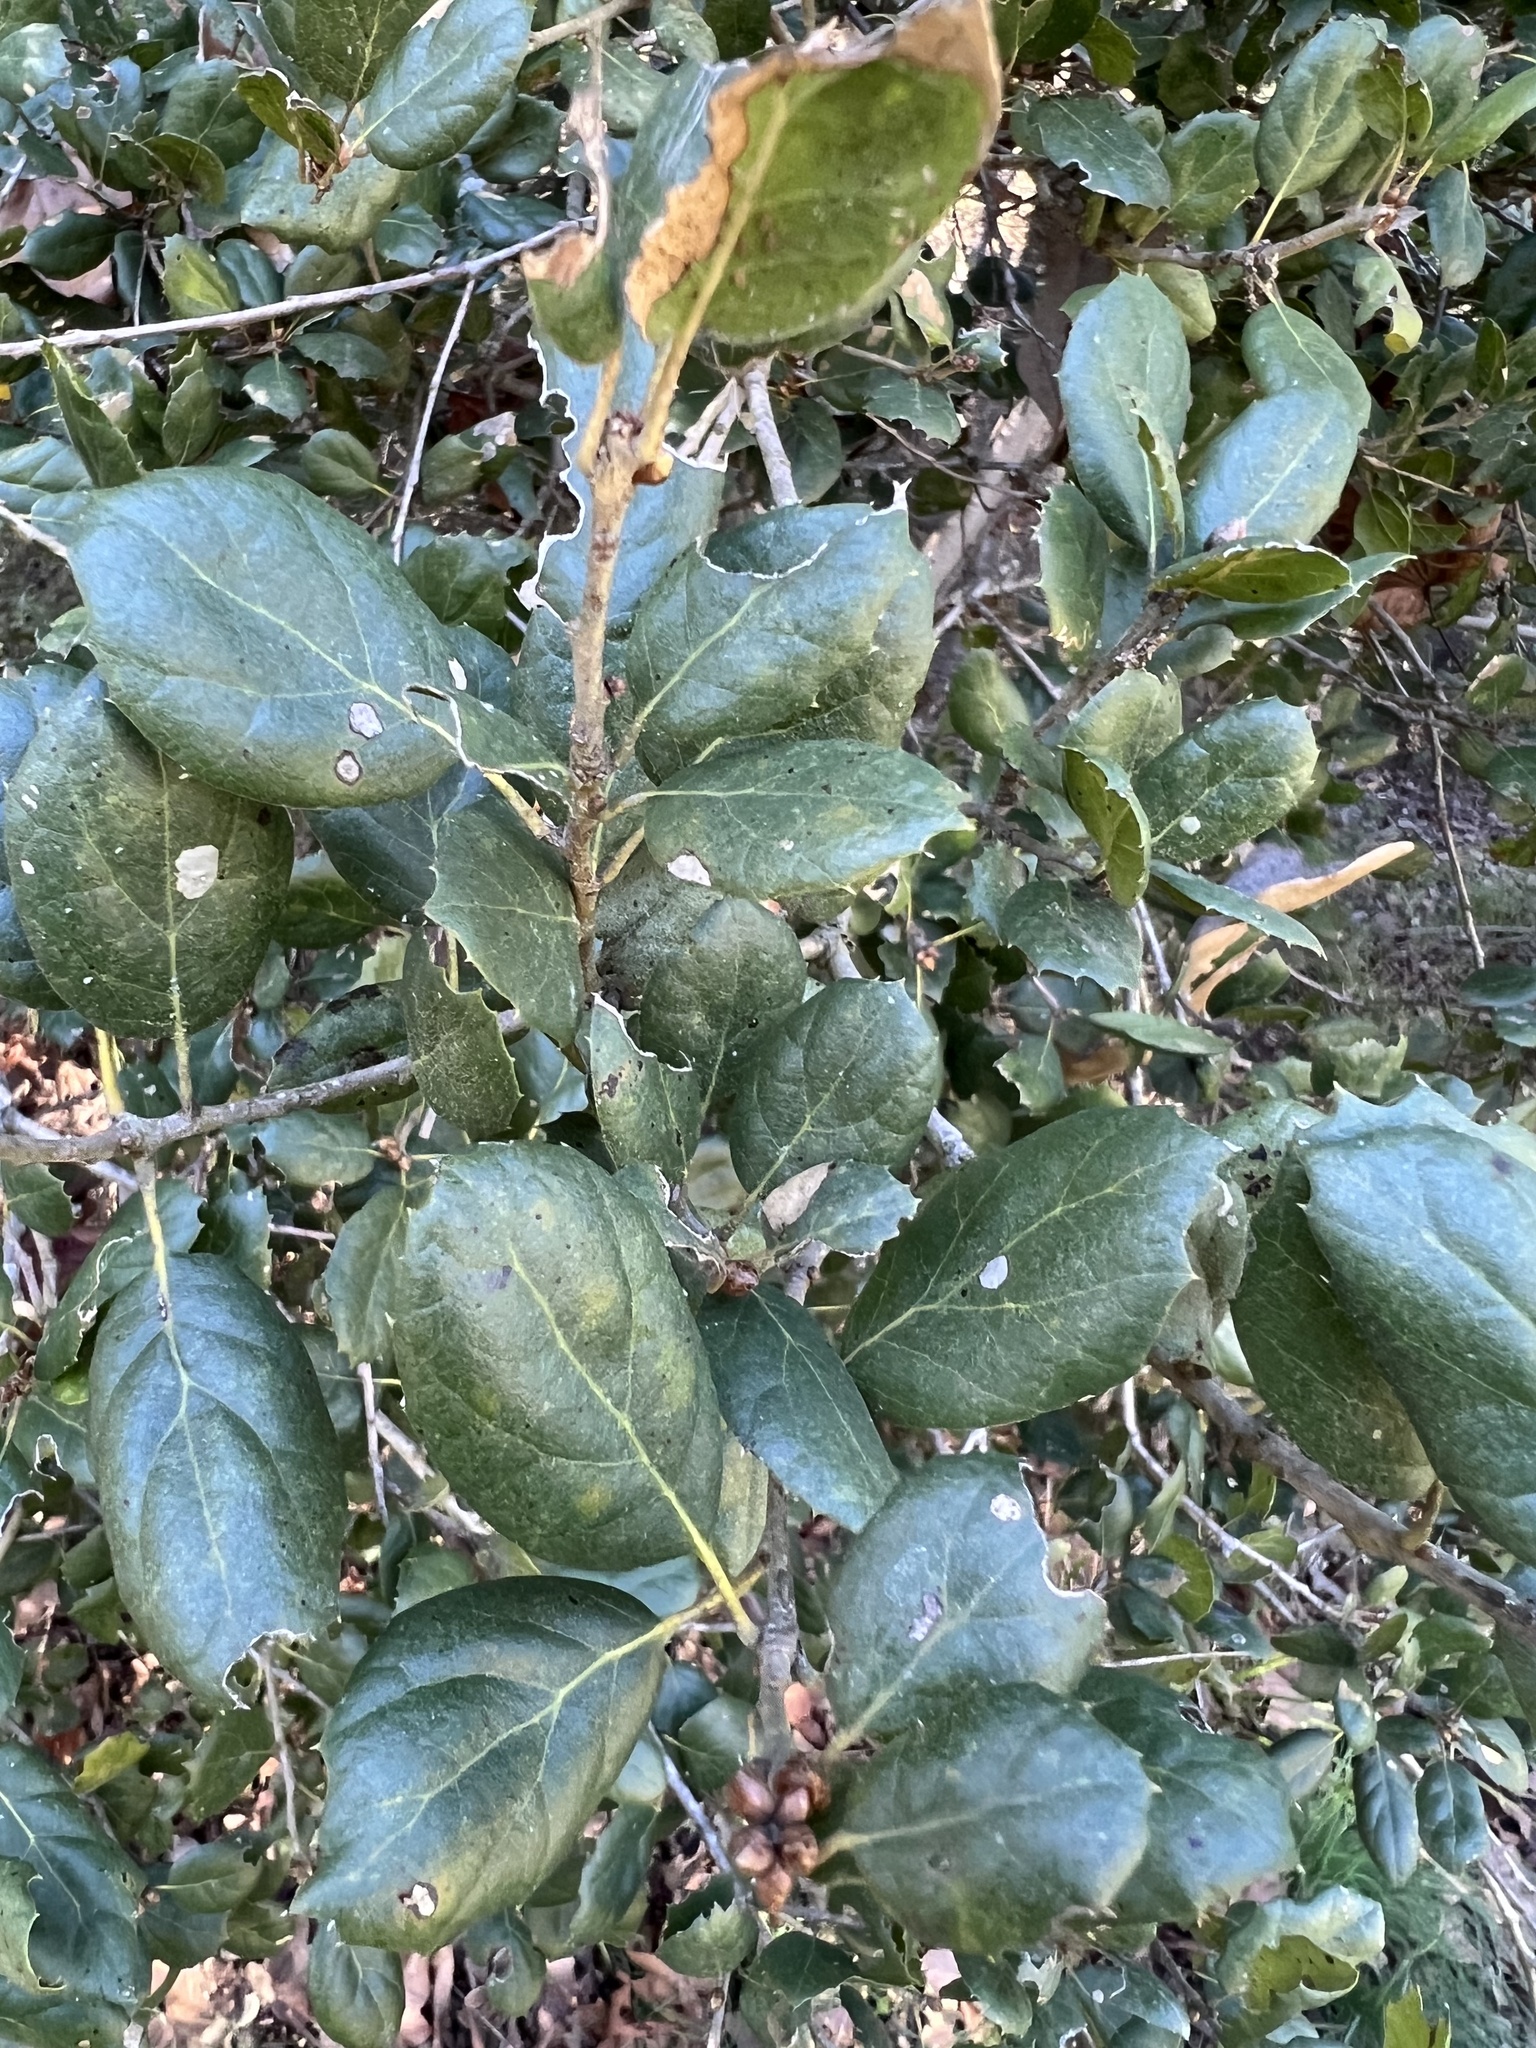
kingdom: Plantae
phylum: Tracheophyta
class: Magnoliopsida
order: Fagales
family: Fagaceae
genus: Quercus
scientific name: Quercus agrifolia
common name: California live oak
